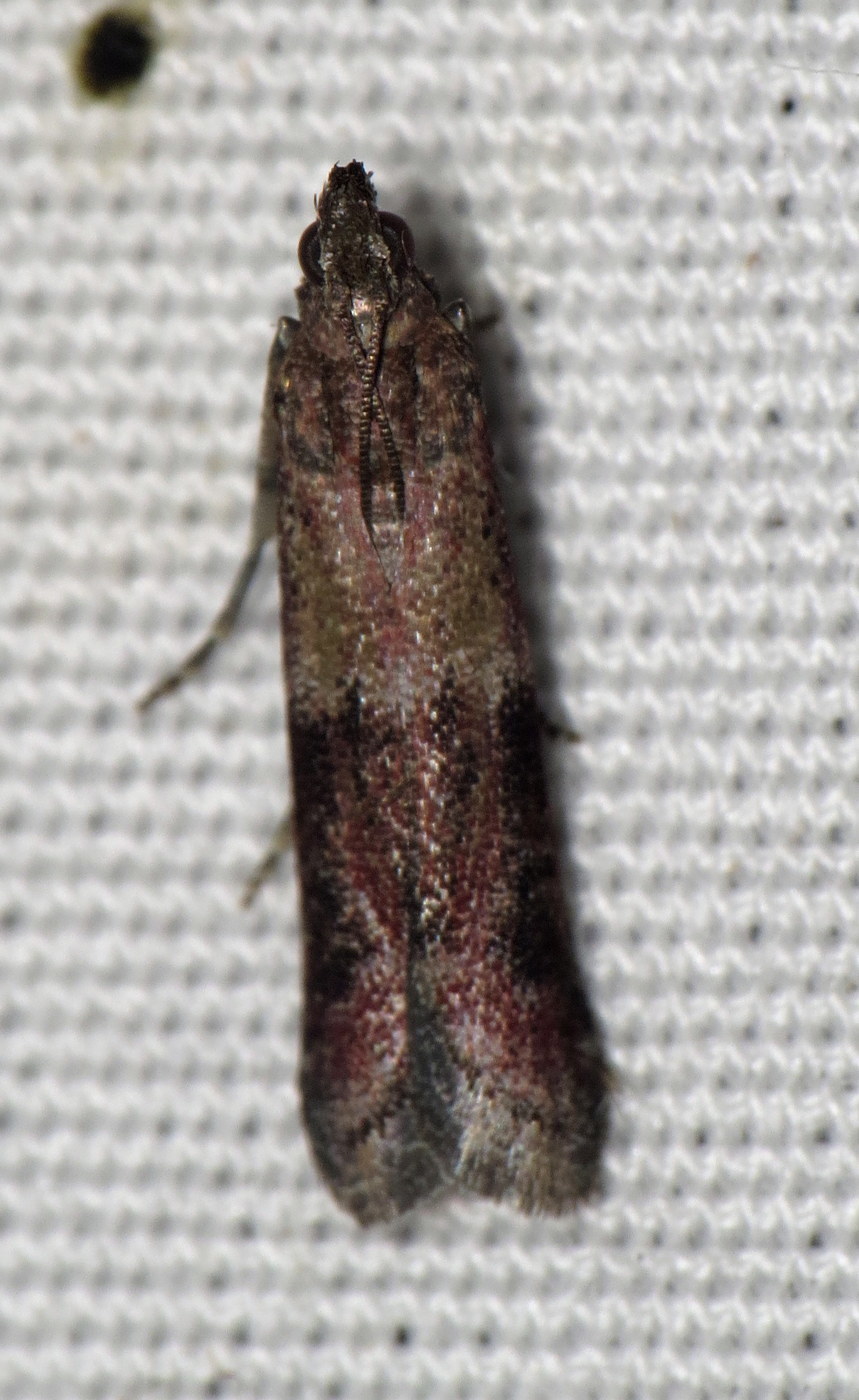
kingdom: Animalia
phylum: Arthropoda
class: Insecta
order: Lepidoptera
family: Pyralidae
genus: Ephestiodes
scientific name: Ephestiodes infimella
